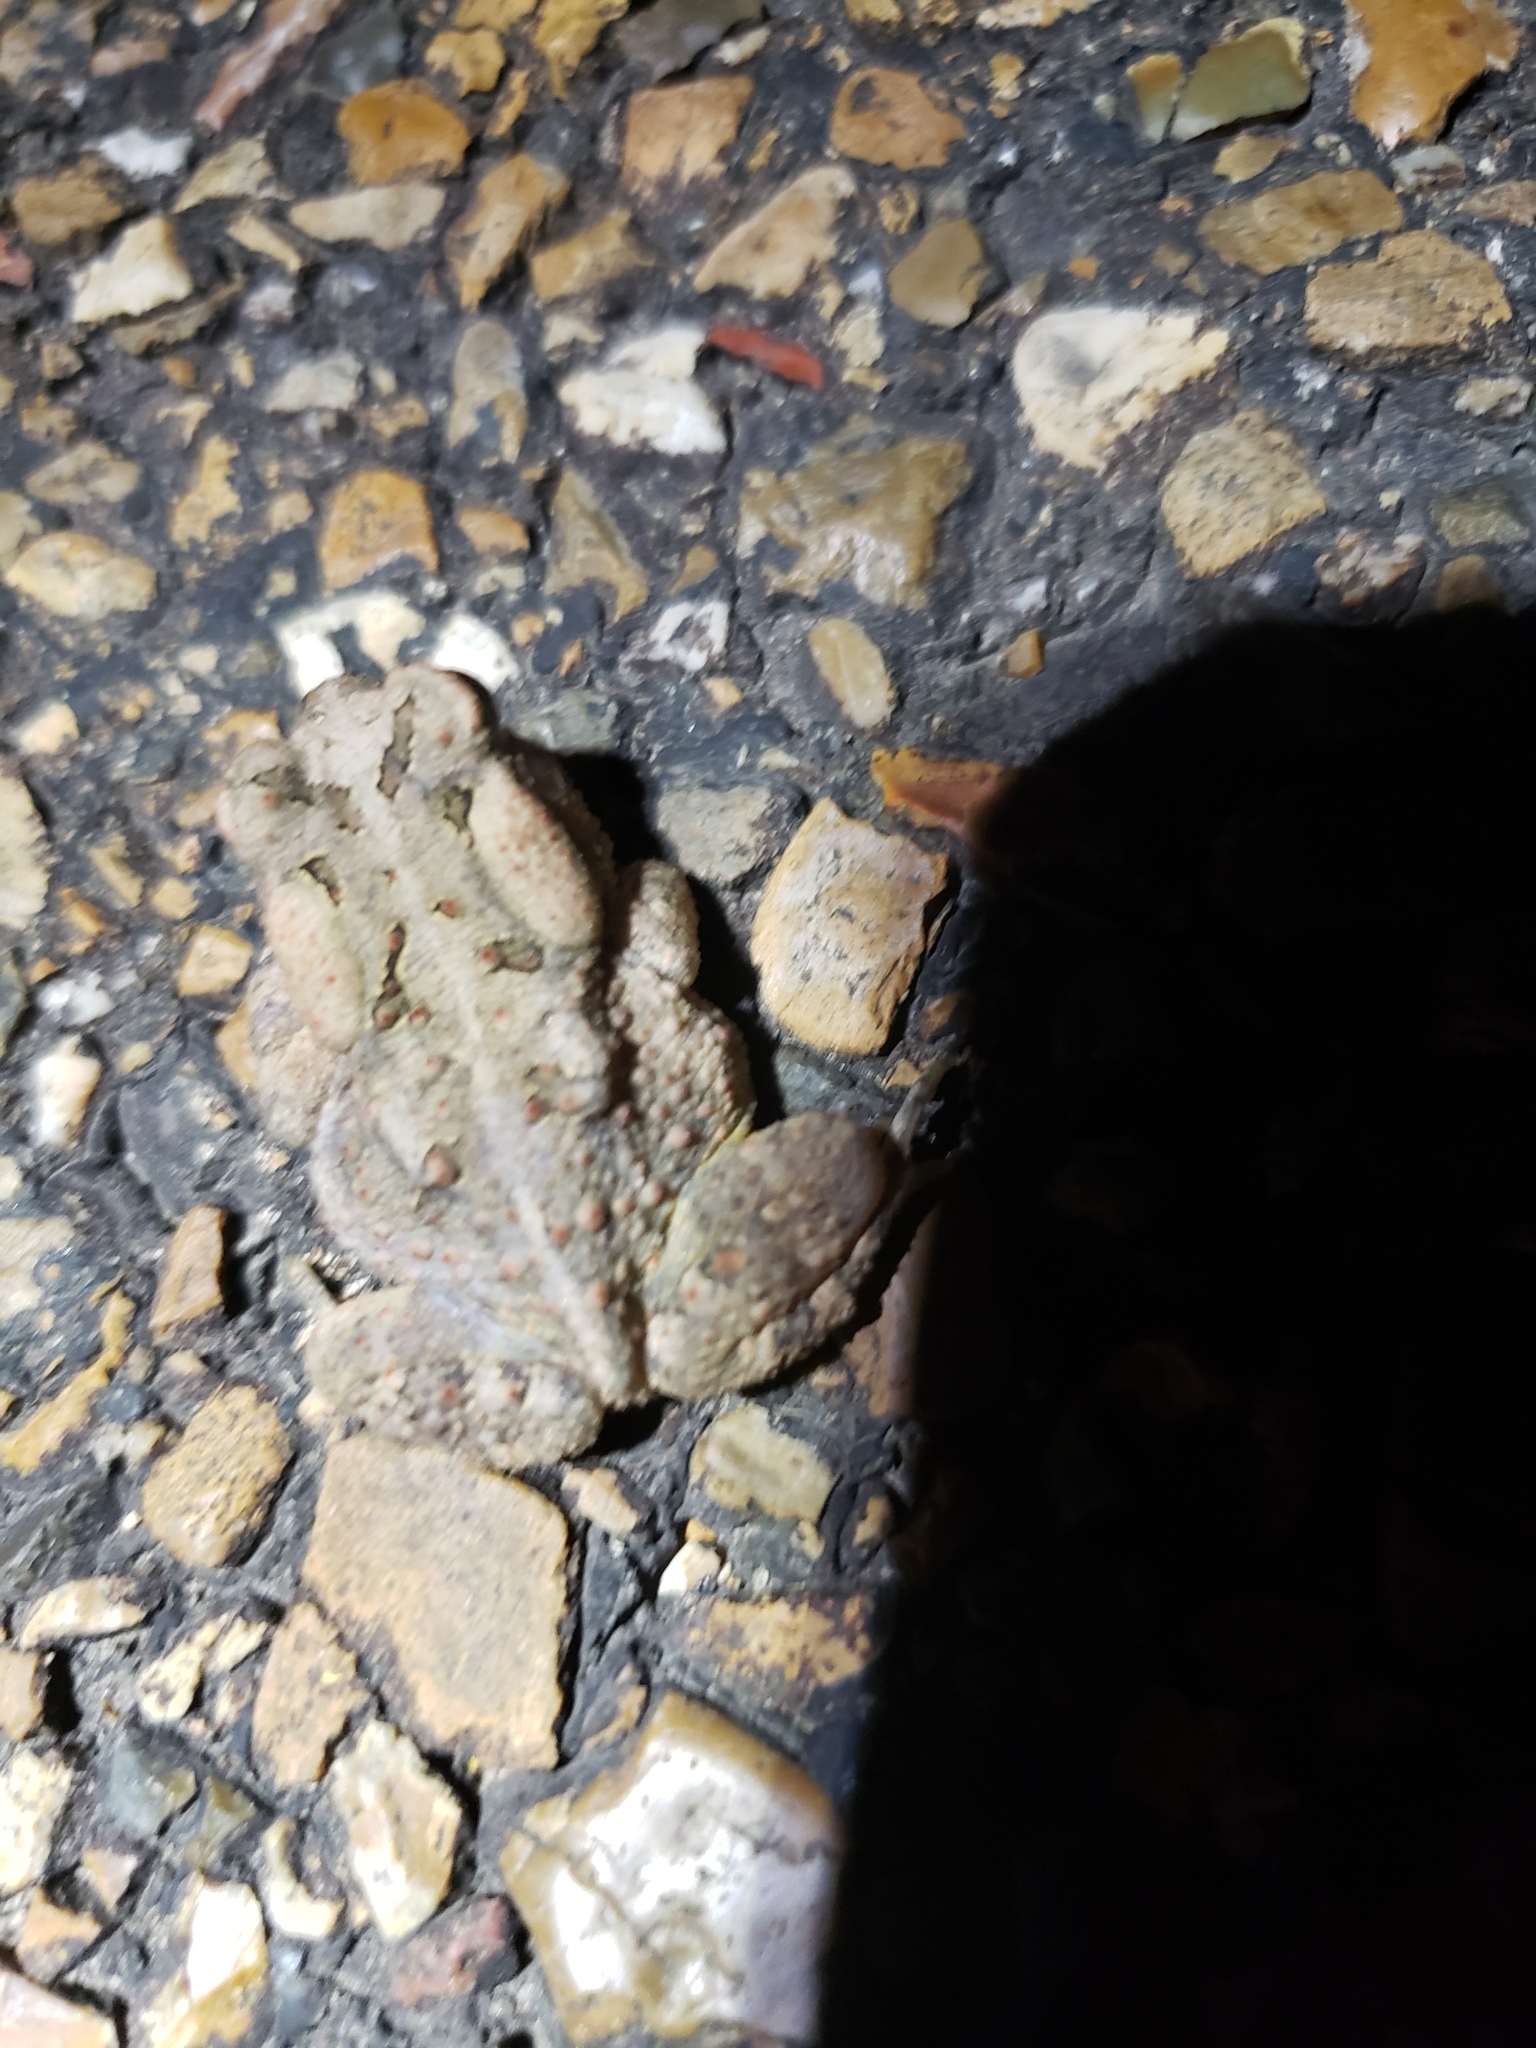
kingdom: Animalia
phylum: Chordata
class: Amphibia
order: Anura
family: Bufonidae
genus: Anaxyrus
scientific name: Anaxyrus americanus
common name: American toad
